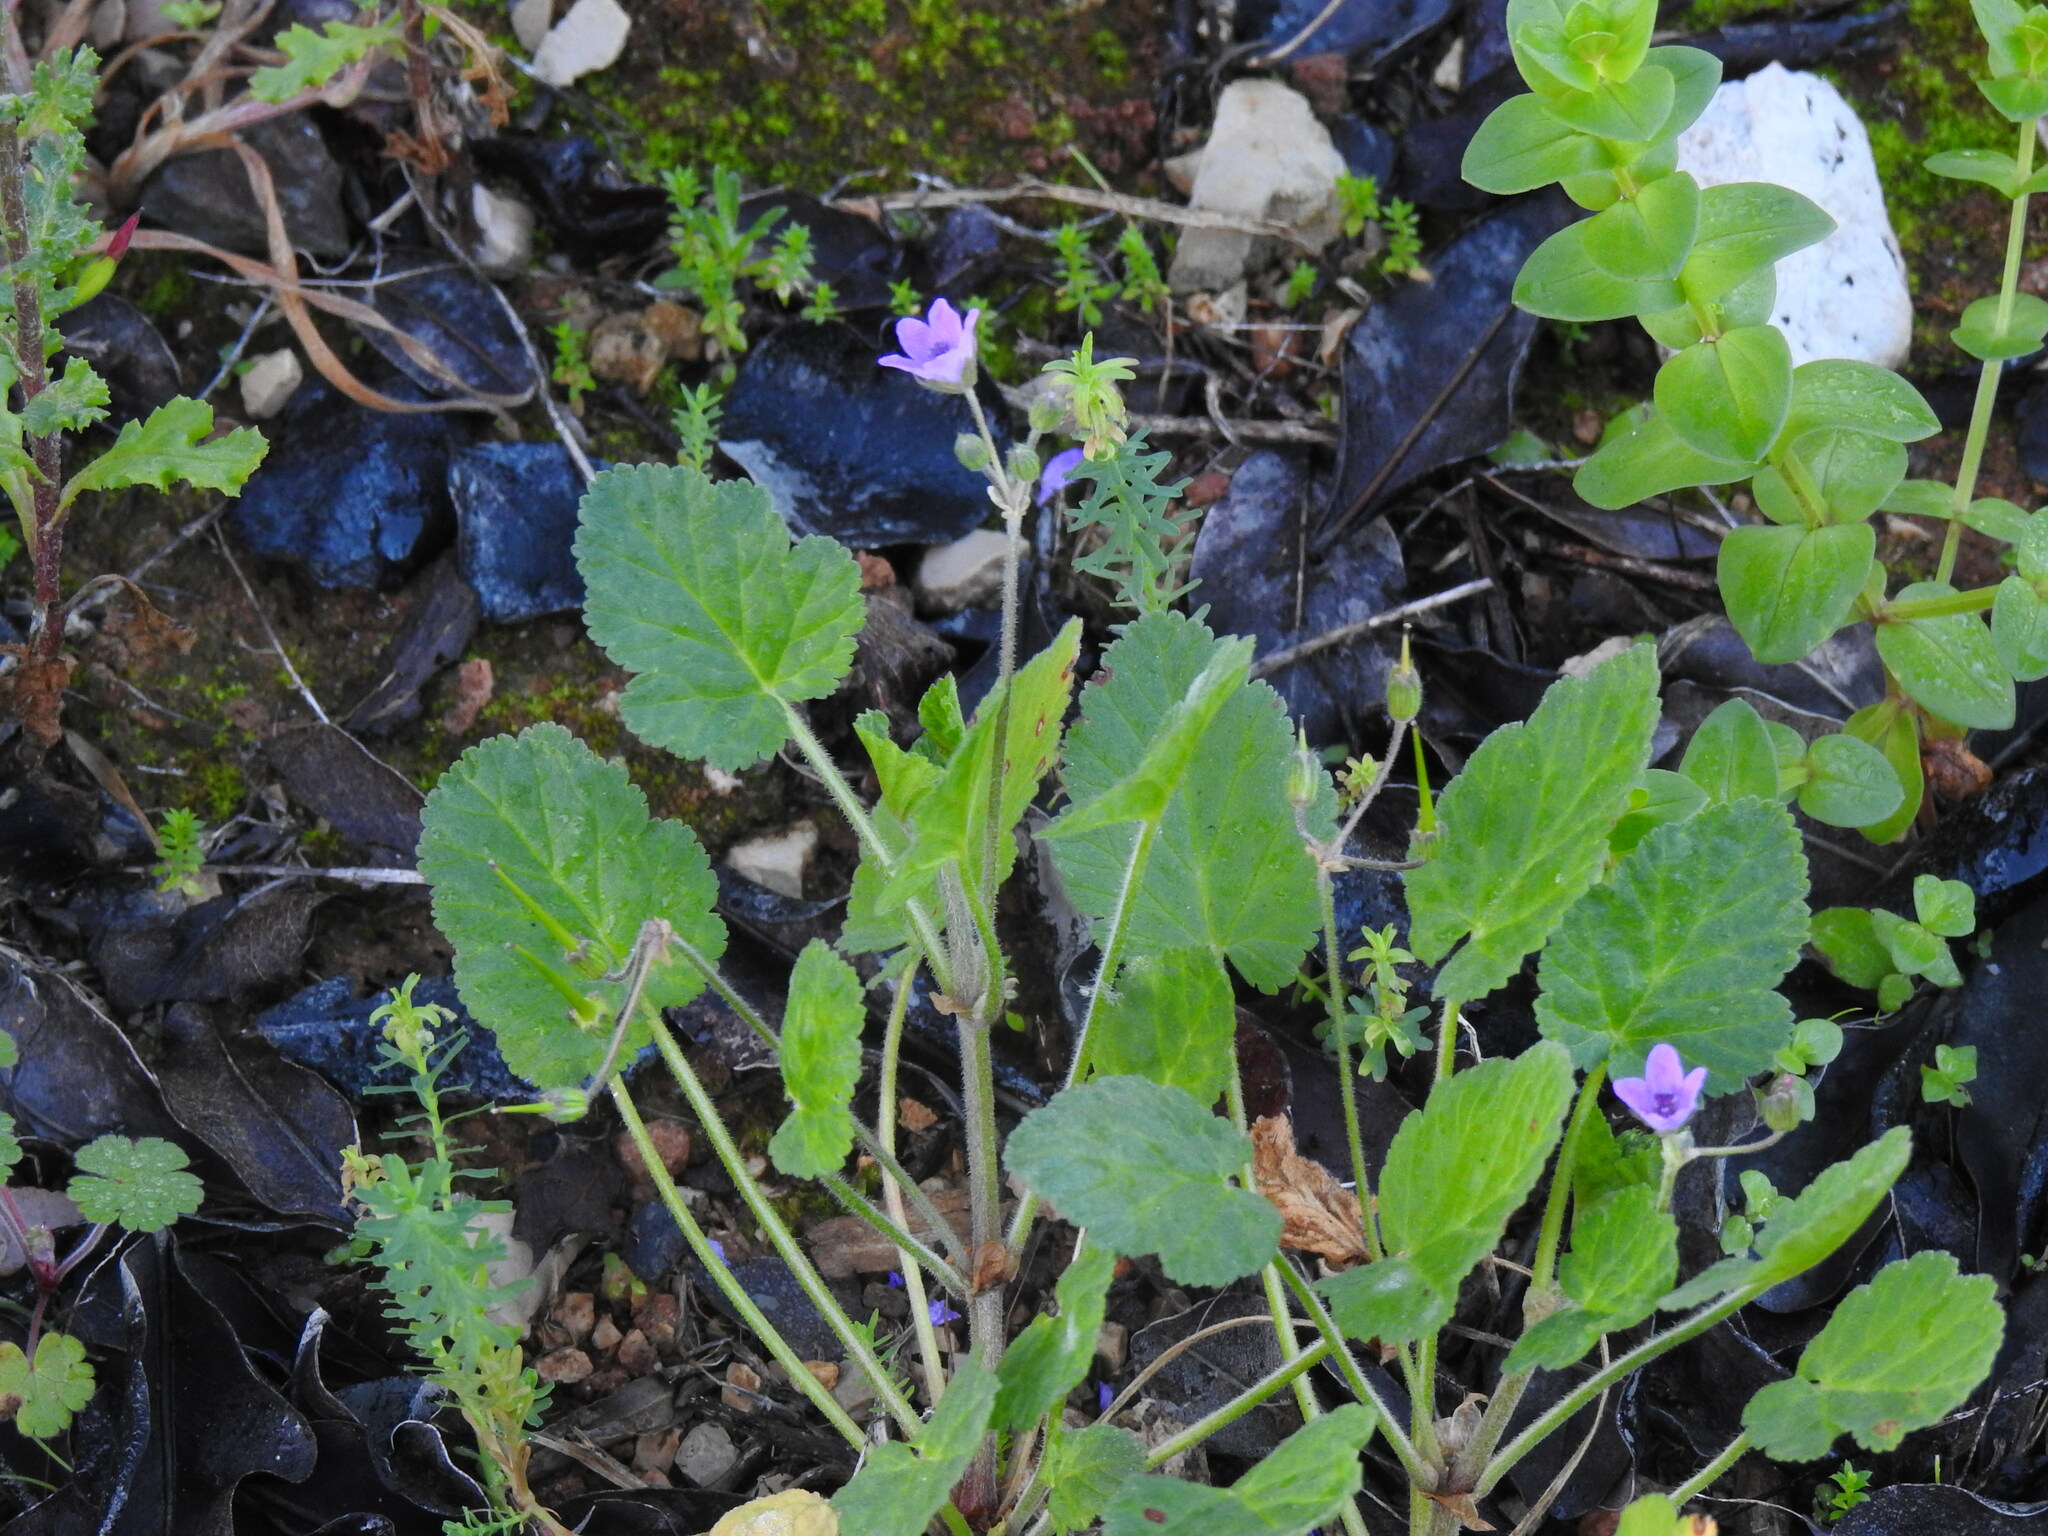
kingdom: Plantae
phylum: Tracheophyta
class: Magnoliopsida
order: Geraniales
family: Geraniaceae
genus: Erodium
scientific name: Erodium malacoides
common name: Soft stork's-bill
